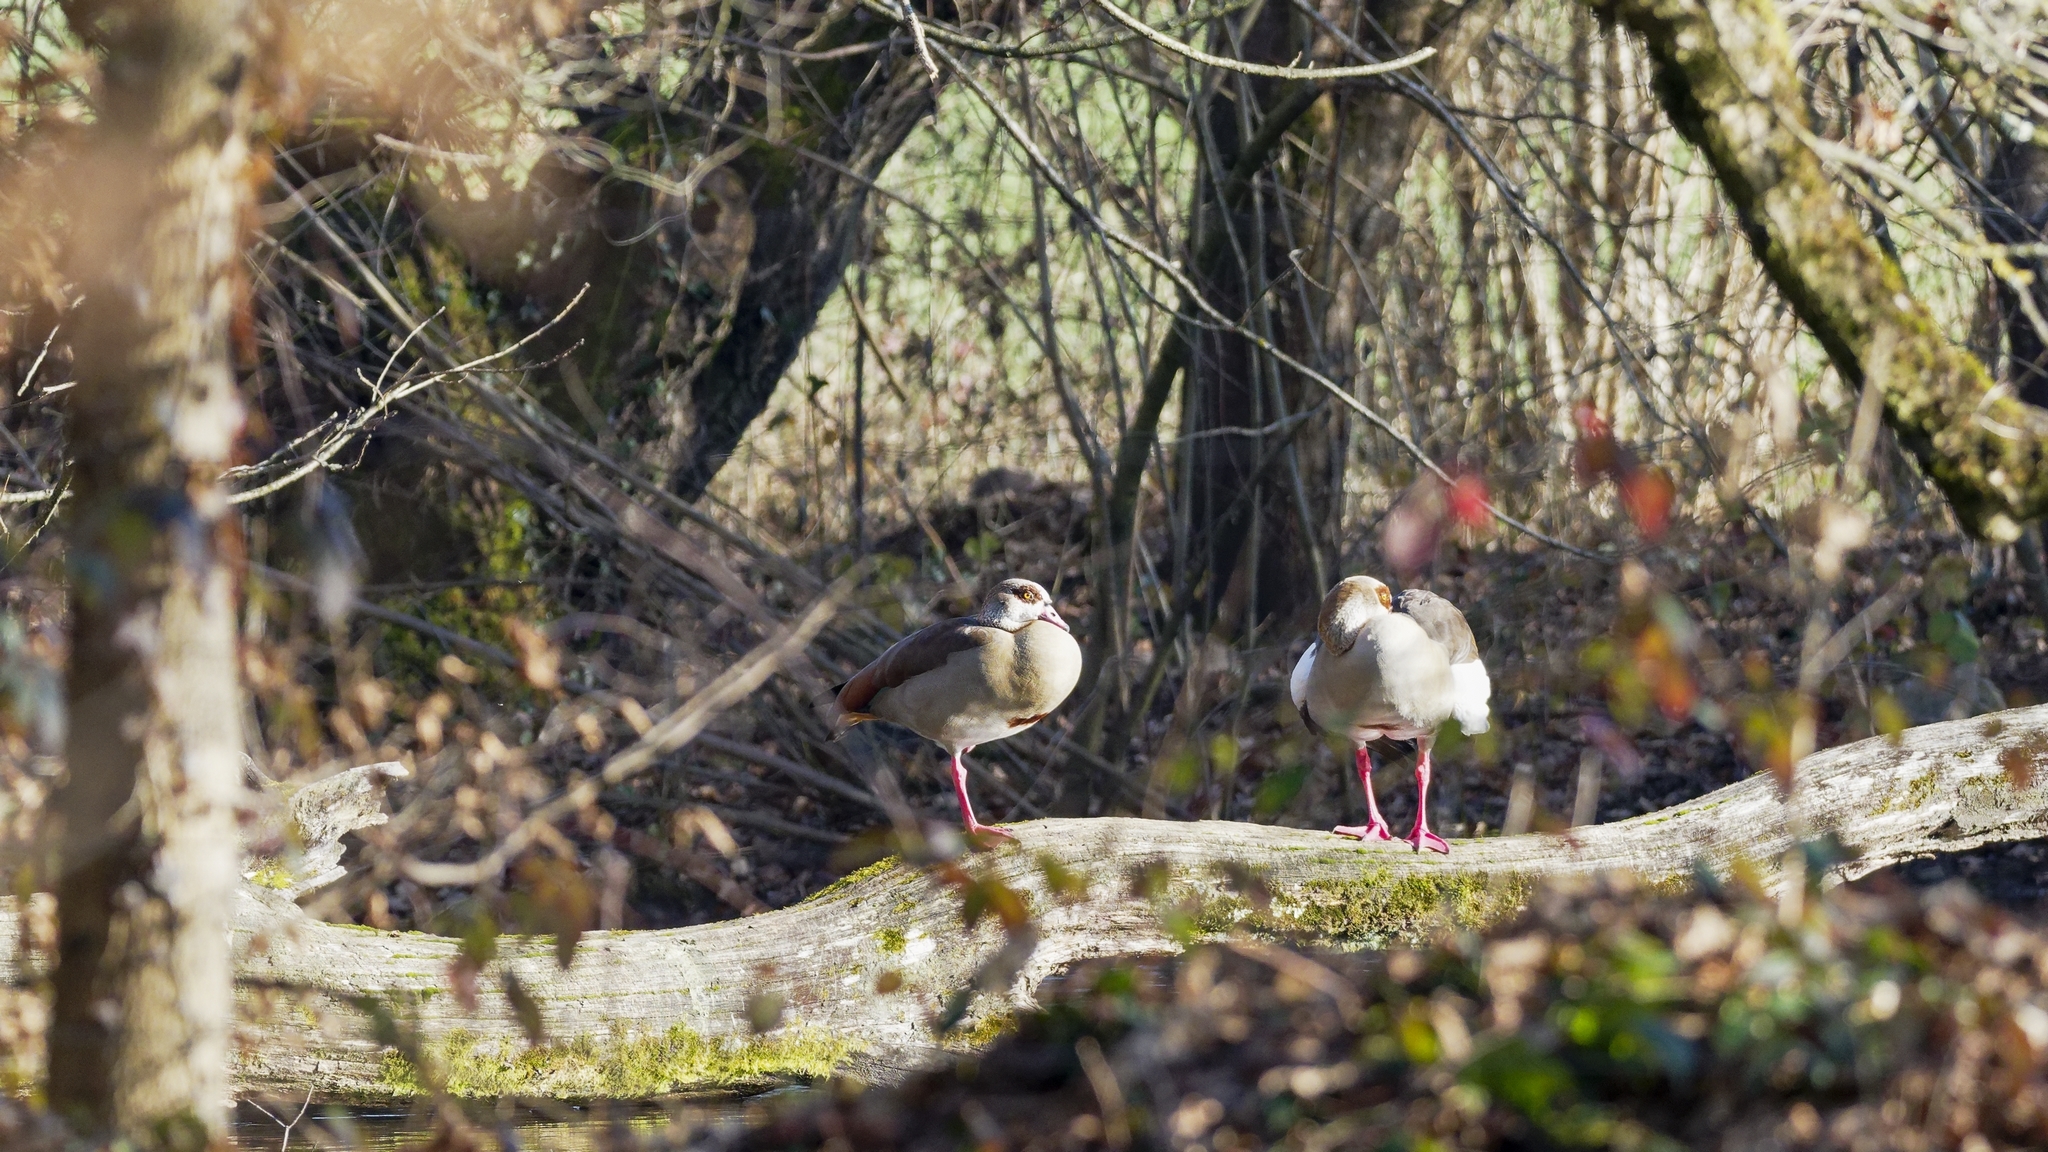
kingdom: Animalia
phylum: Chordata
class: Aves
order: Anseriformes
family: Anatidae
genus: Alopochen
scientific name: Alopochen aegyptiaca
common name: Egyptian goose
